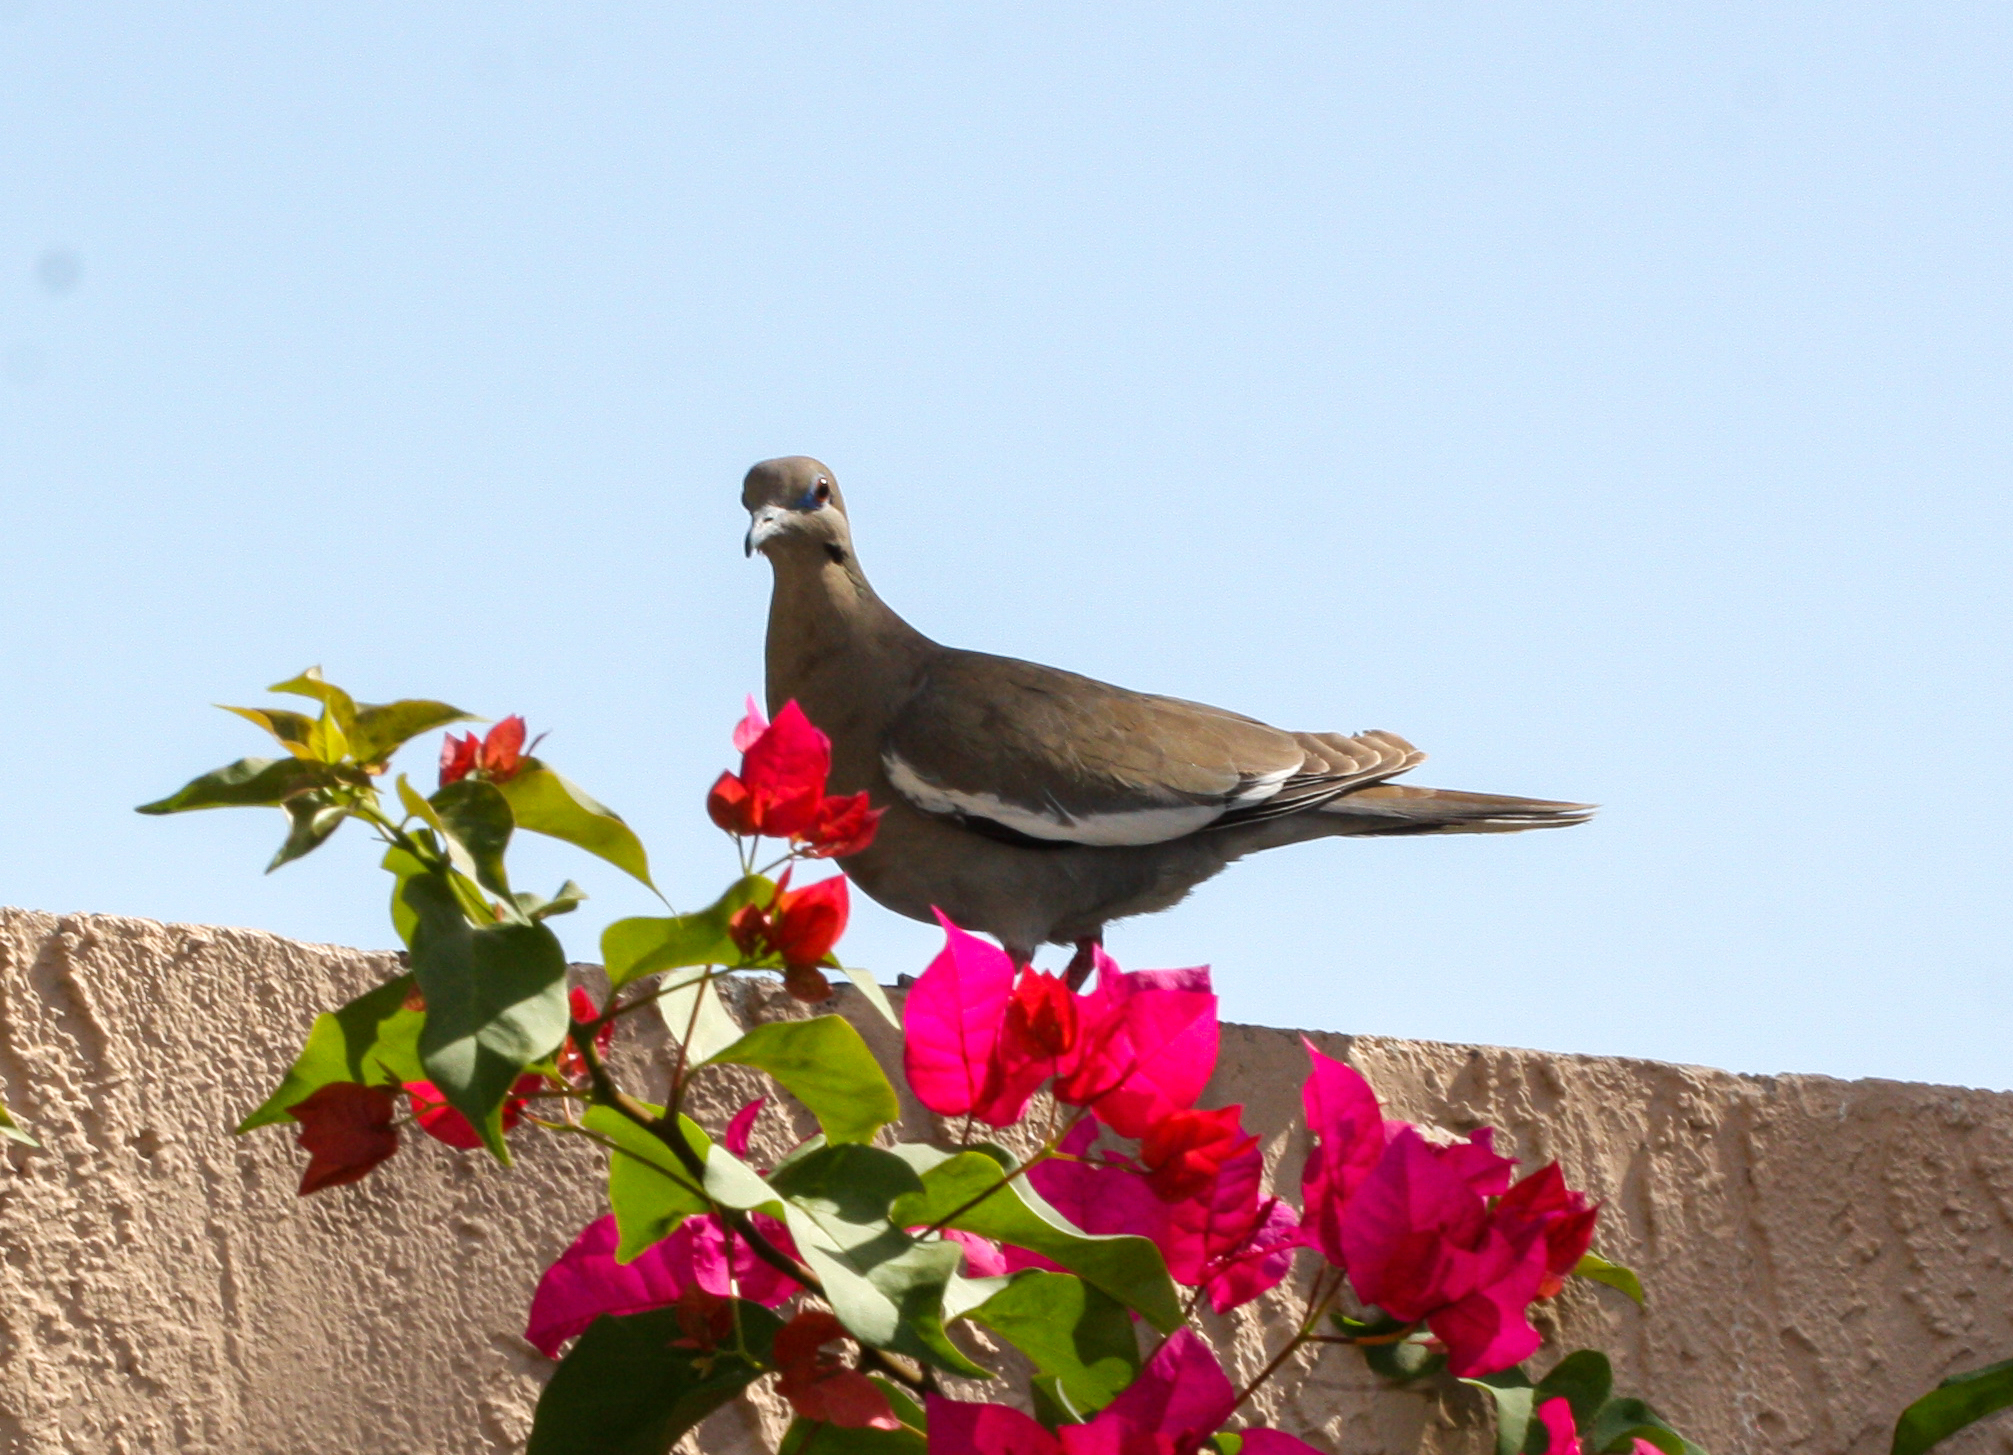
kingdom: Animalia
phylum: Chordata
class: Aves
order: Columbiformes
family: Columbidae
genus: Zenaida
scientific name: Zenaida asiatica
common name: White-winged dove
